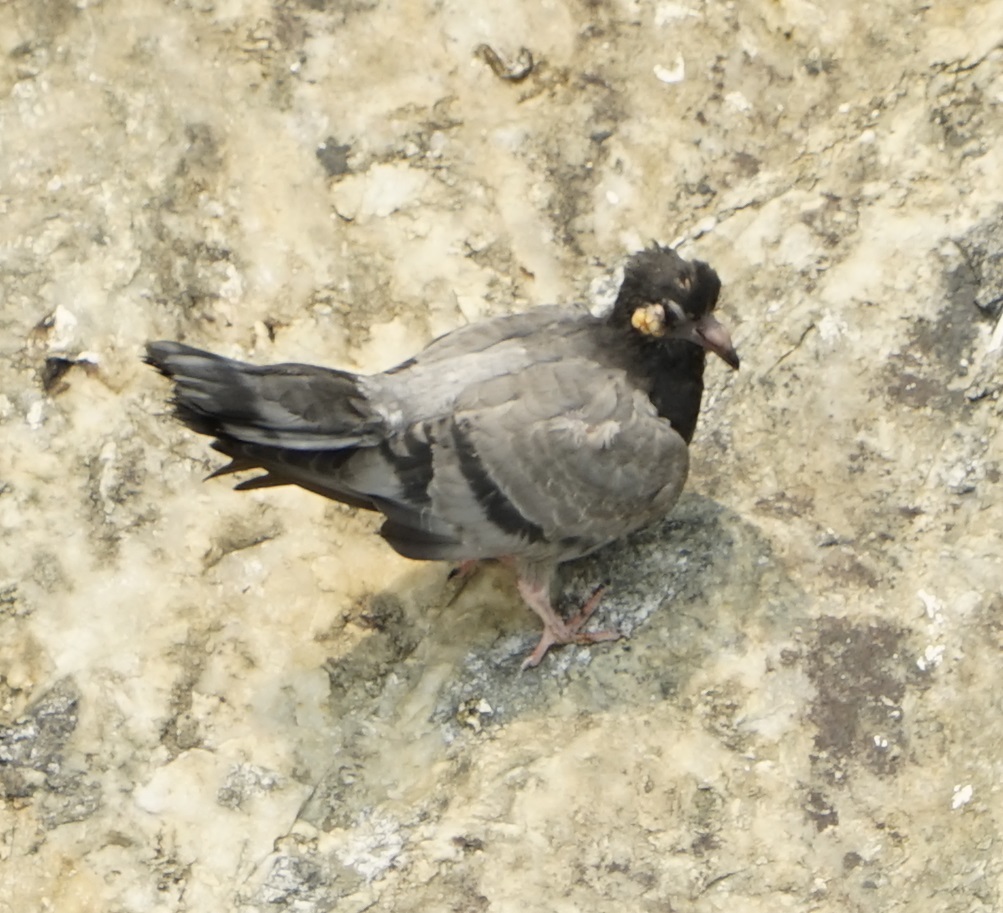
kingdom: Animalia
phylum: Chordata
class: Aves
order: Columbiformes
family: Columbidae
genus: Columba
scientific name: Columba livia
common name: Rock pigeon
